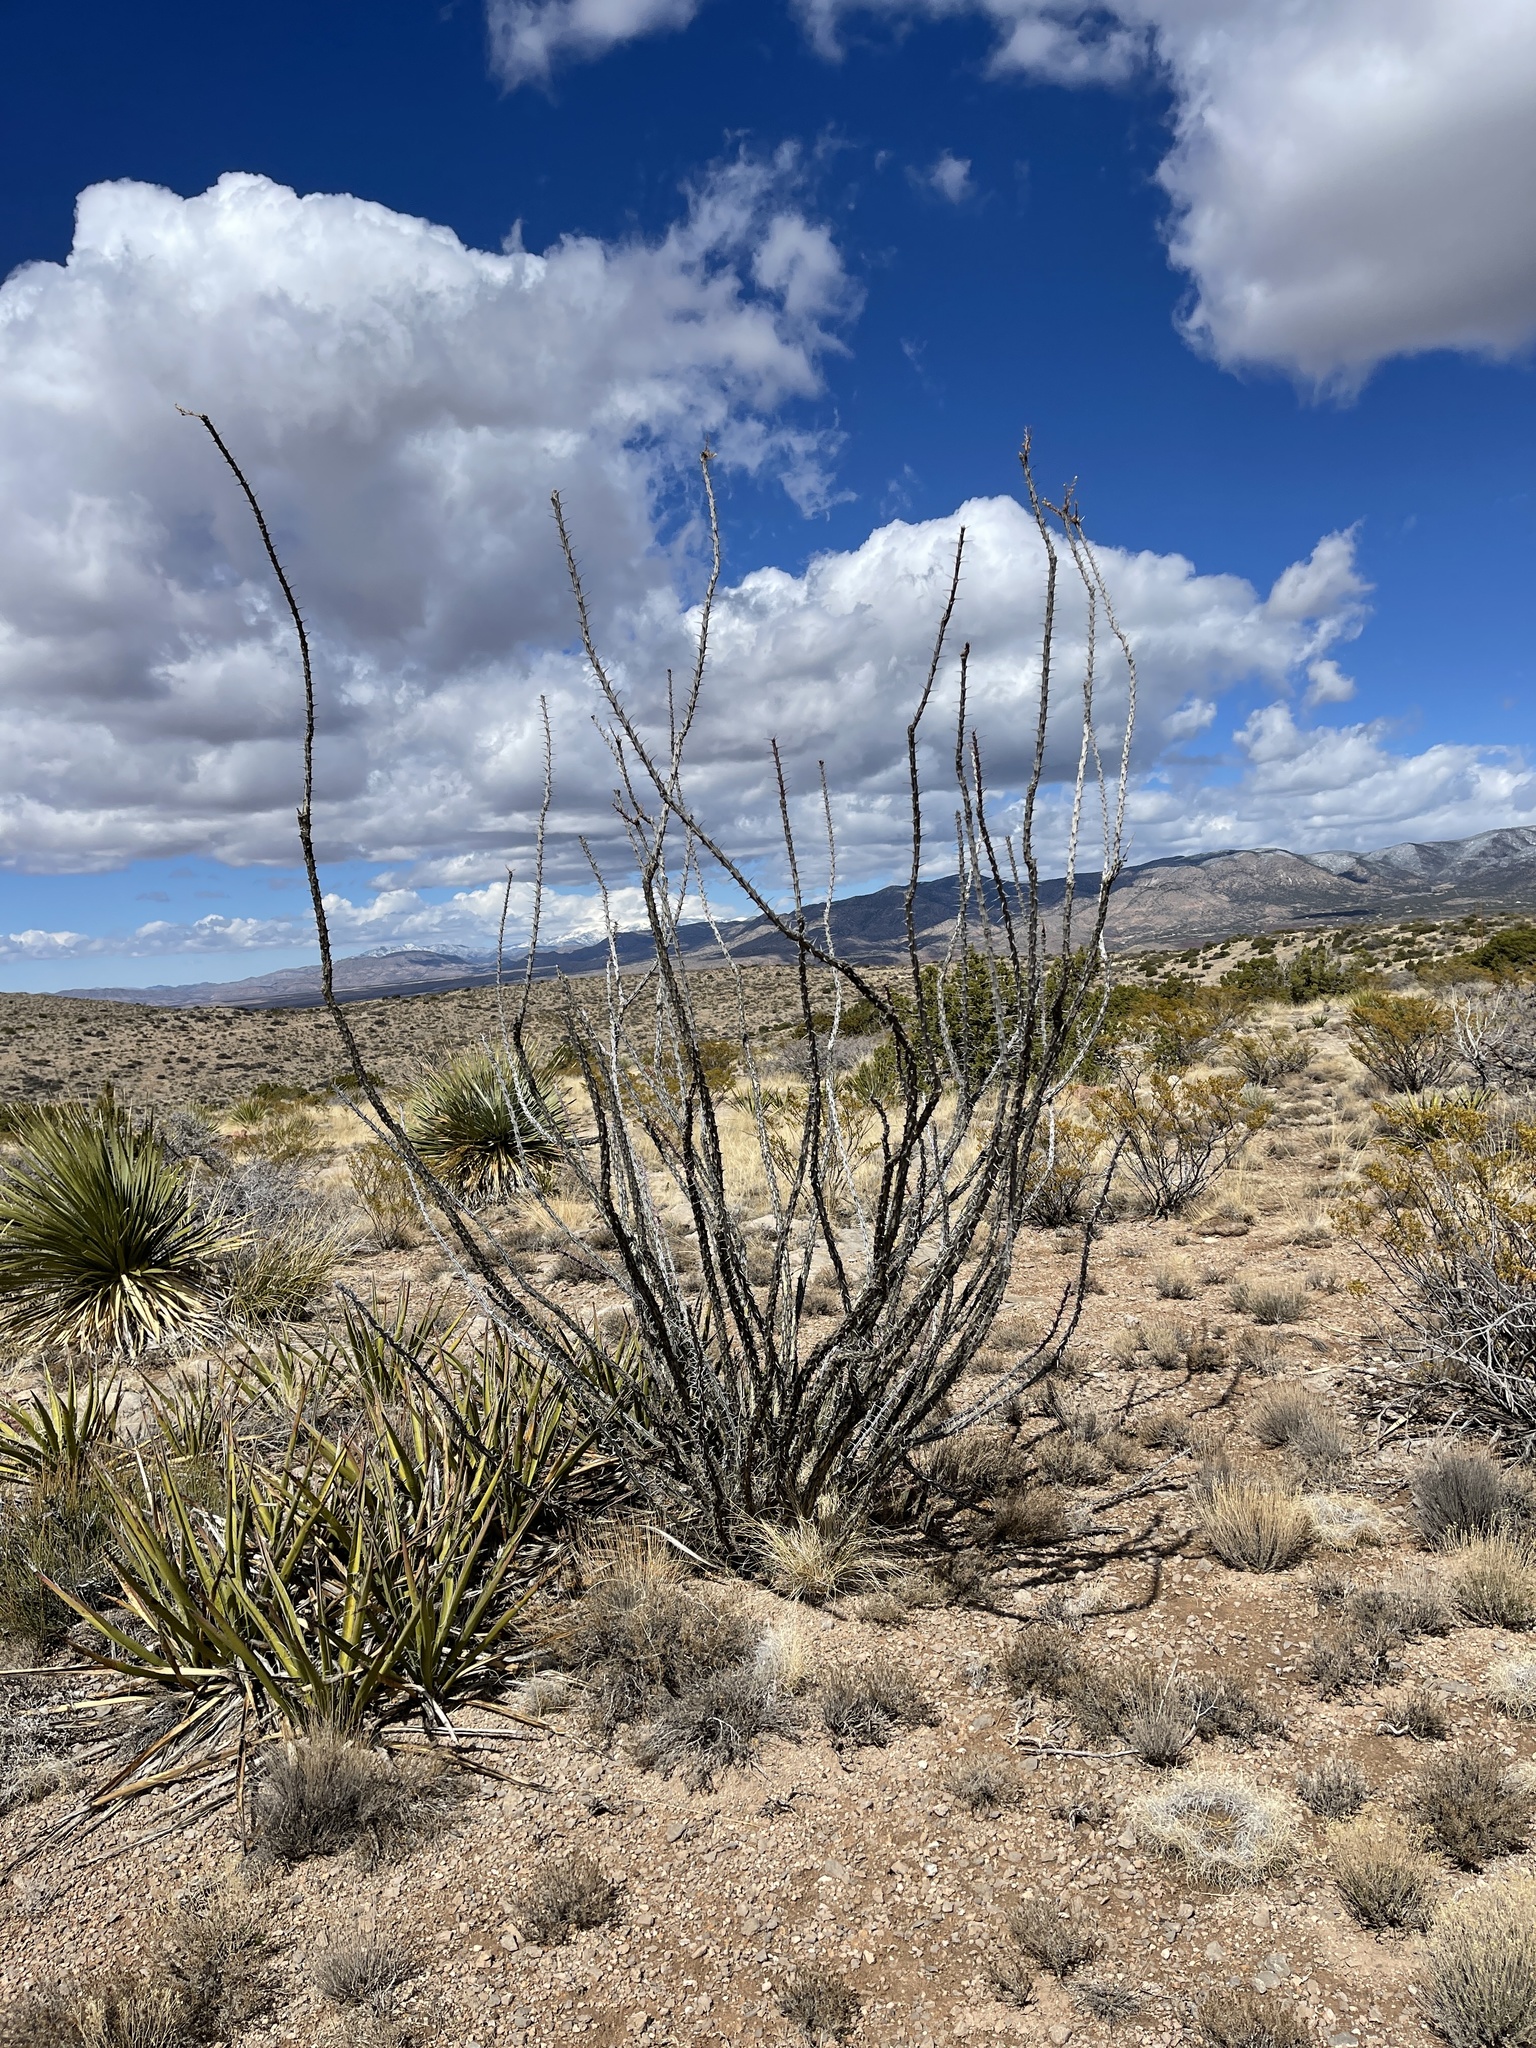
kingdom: Plantae
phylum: Tracheophyta
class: Magnoliopsida
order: Ericales
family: Fouquieriaceae
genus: Fouquieria
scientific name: Fouquieria splendens
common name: Vine-cactus
